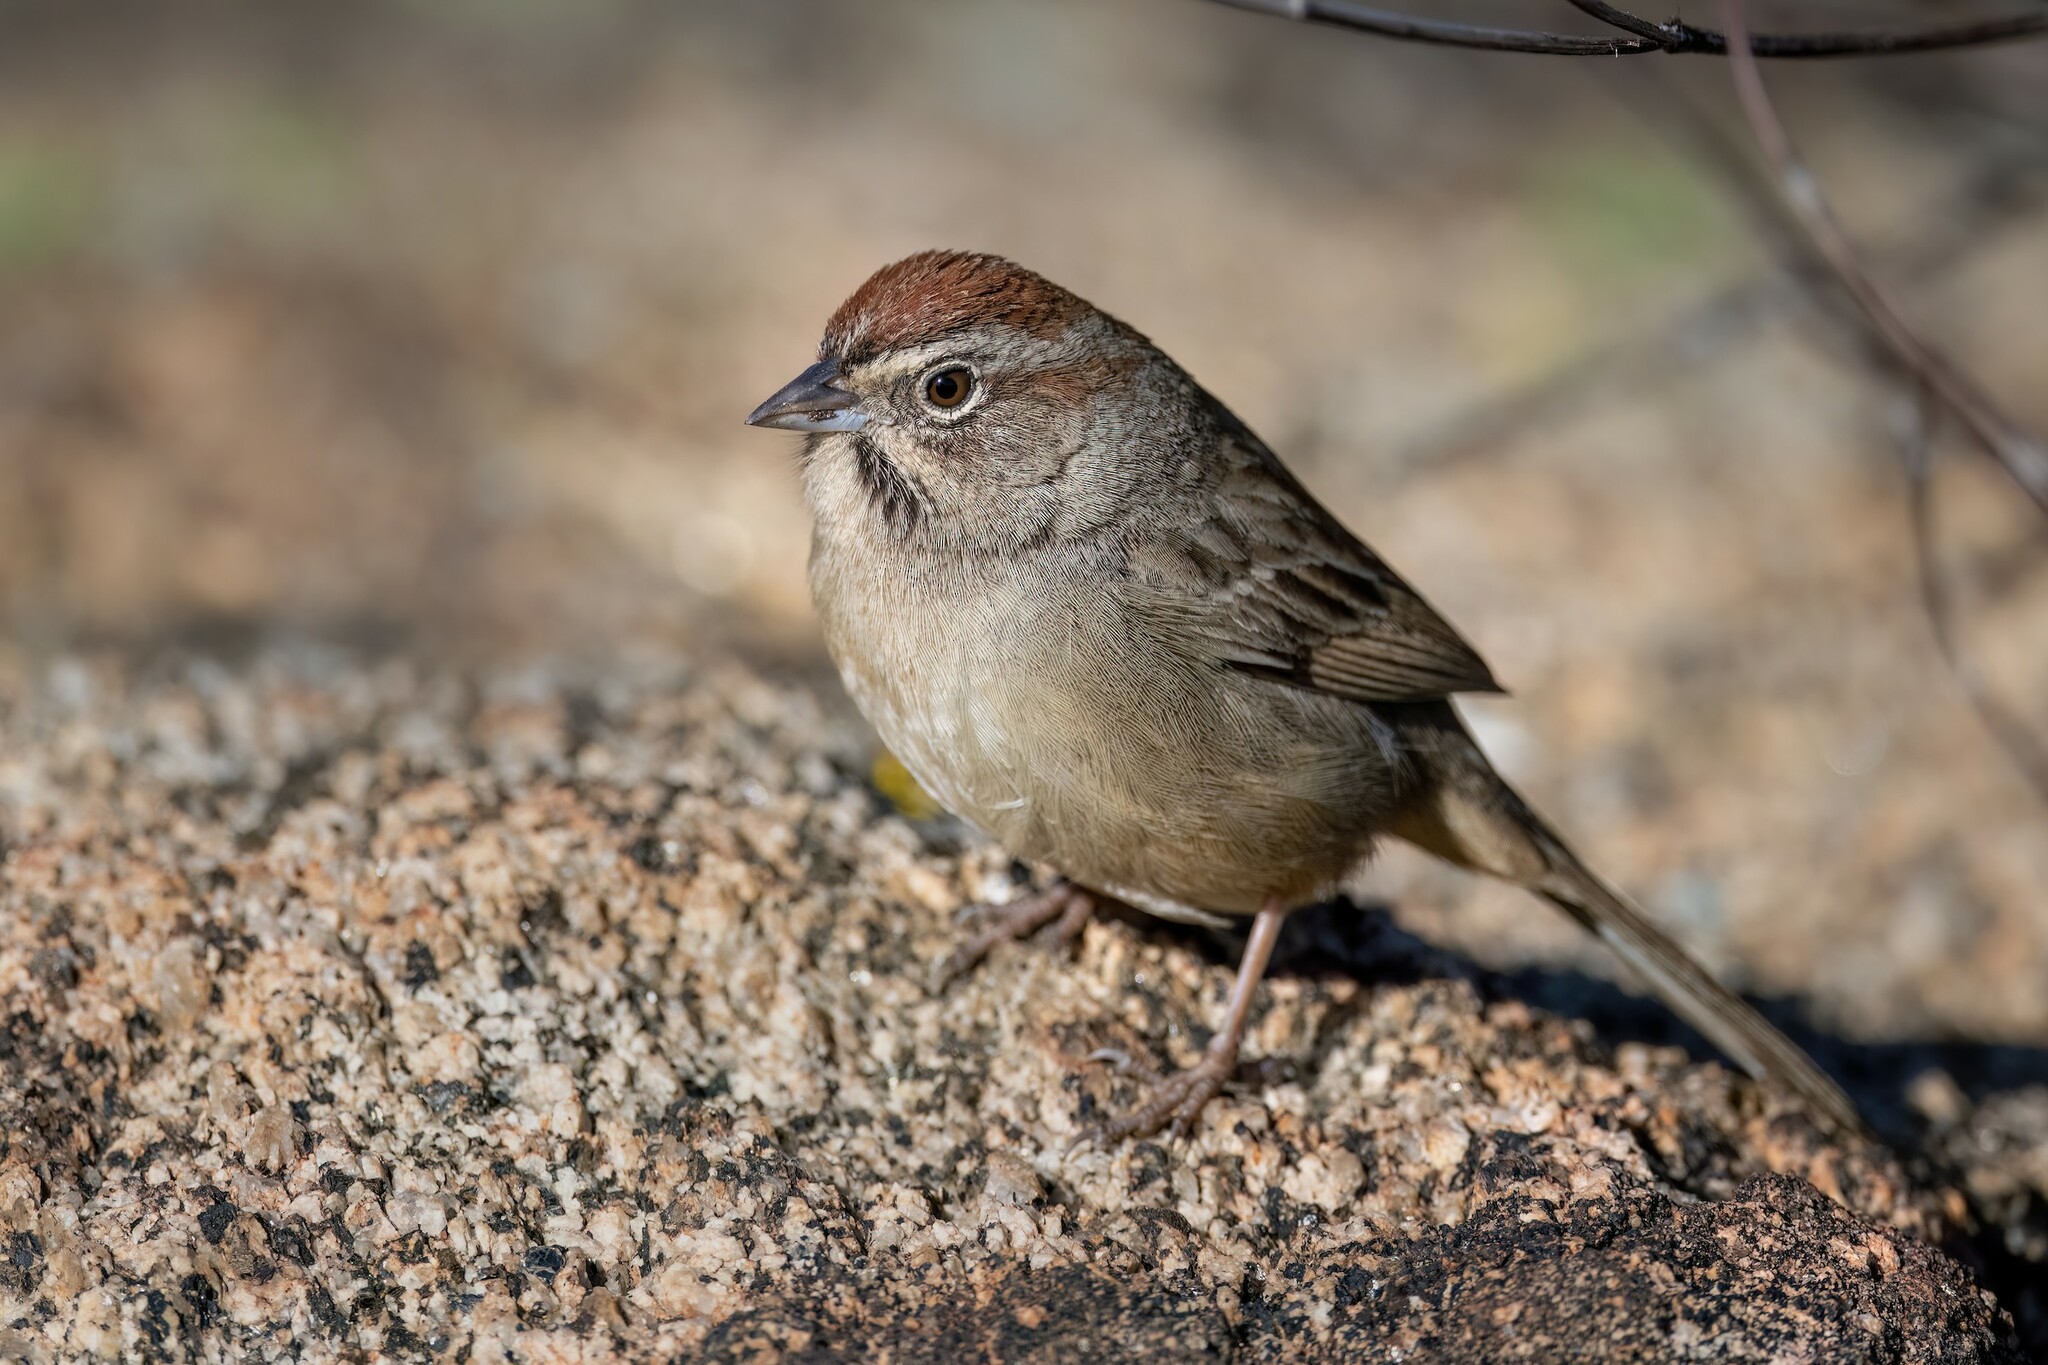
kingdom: Animalia
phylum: Chordata
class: Aves
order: Passeriformes
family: Passerellidae
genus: Aimophila
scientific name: Aimophila ruficeps
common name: Rufous-crowned sparrow
